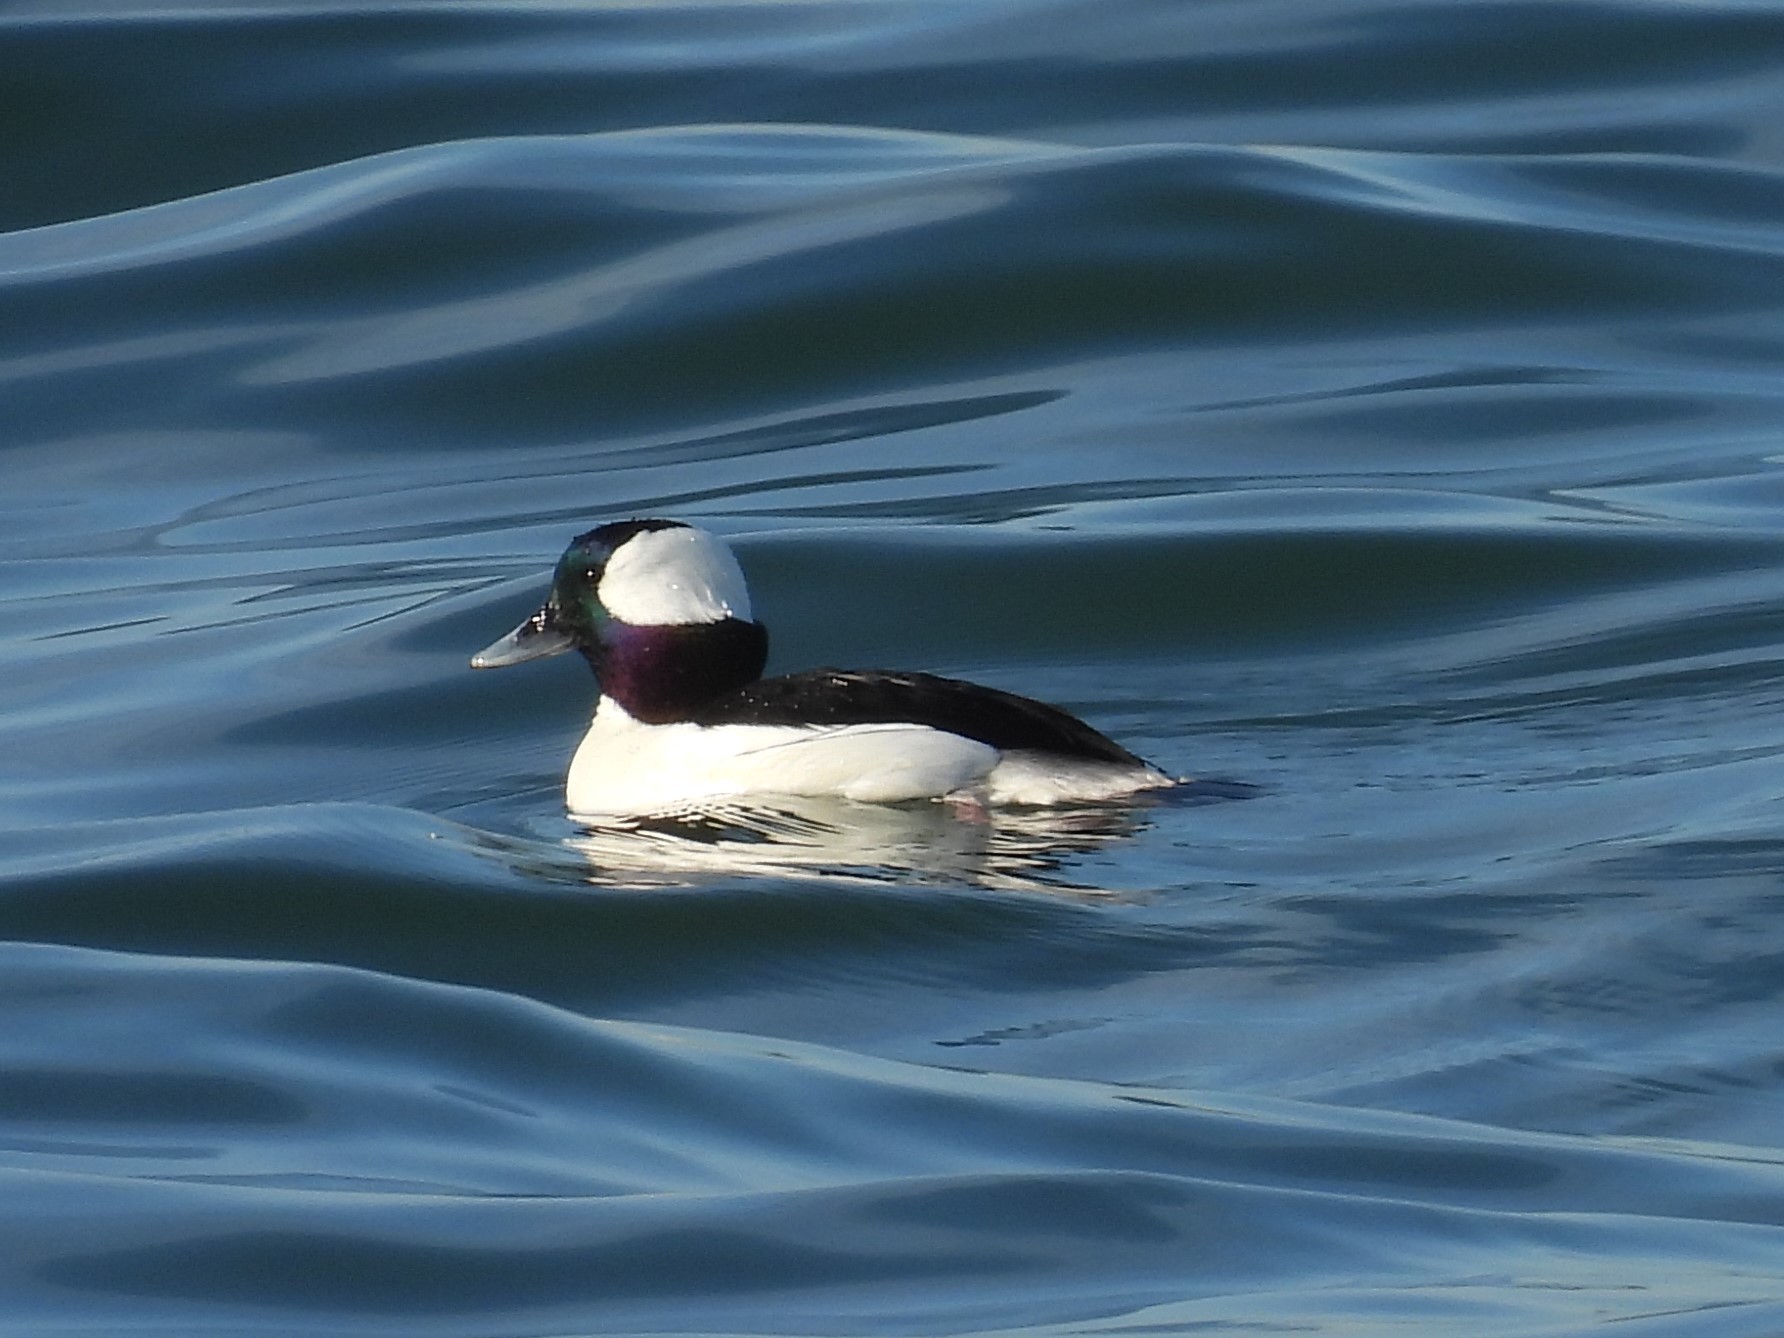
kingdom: Animalia
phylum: Chordata
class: Aves
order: Anseriformes
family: Anatidae
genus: Bucephala
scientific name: Bucephala albeola
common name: Bufflehead
